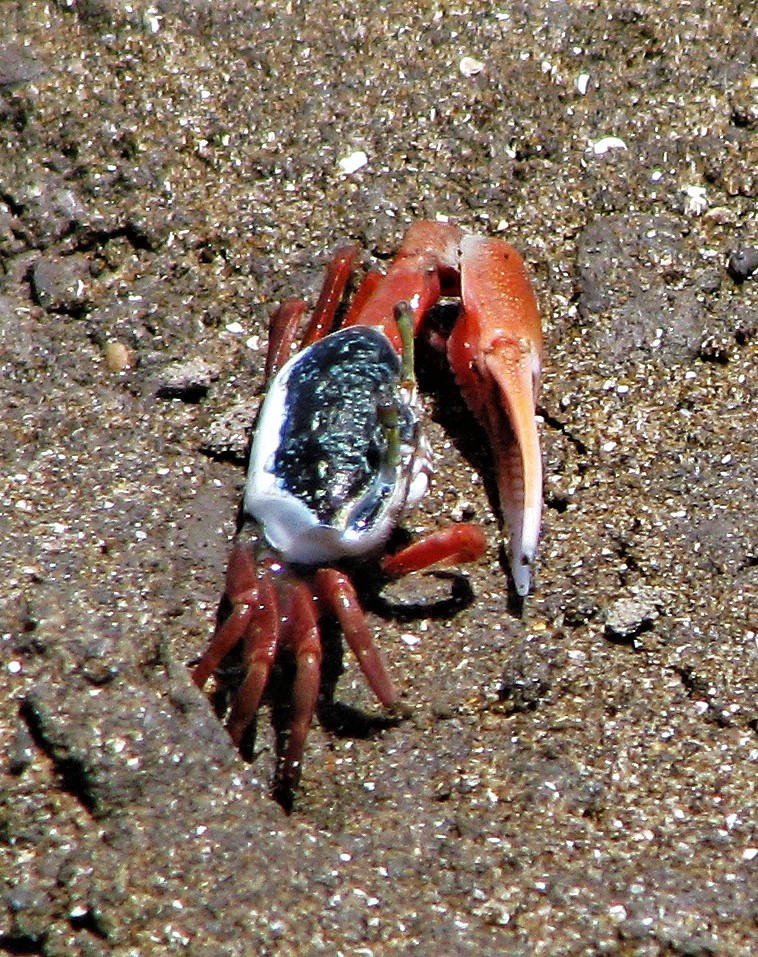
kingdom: Animalia
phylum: Arthropoda
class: Malacostraca
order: Decapoda
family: Ocypodidae
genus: Leptuca
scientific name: Leptuca uruguayensis
